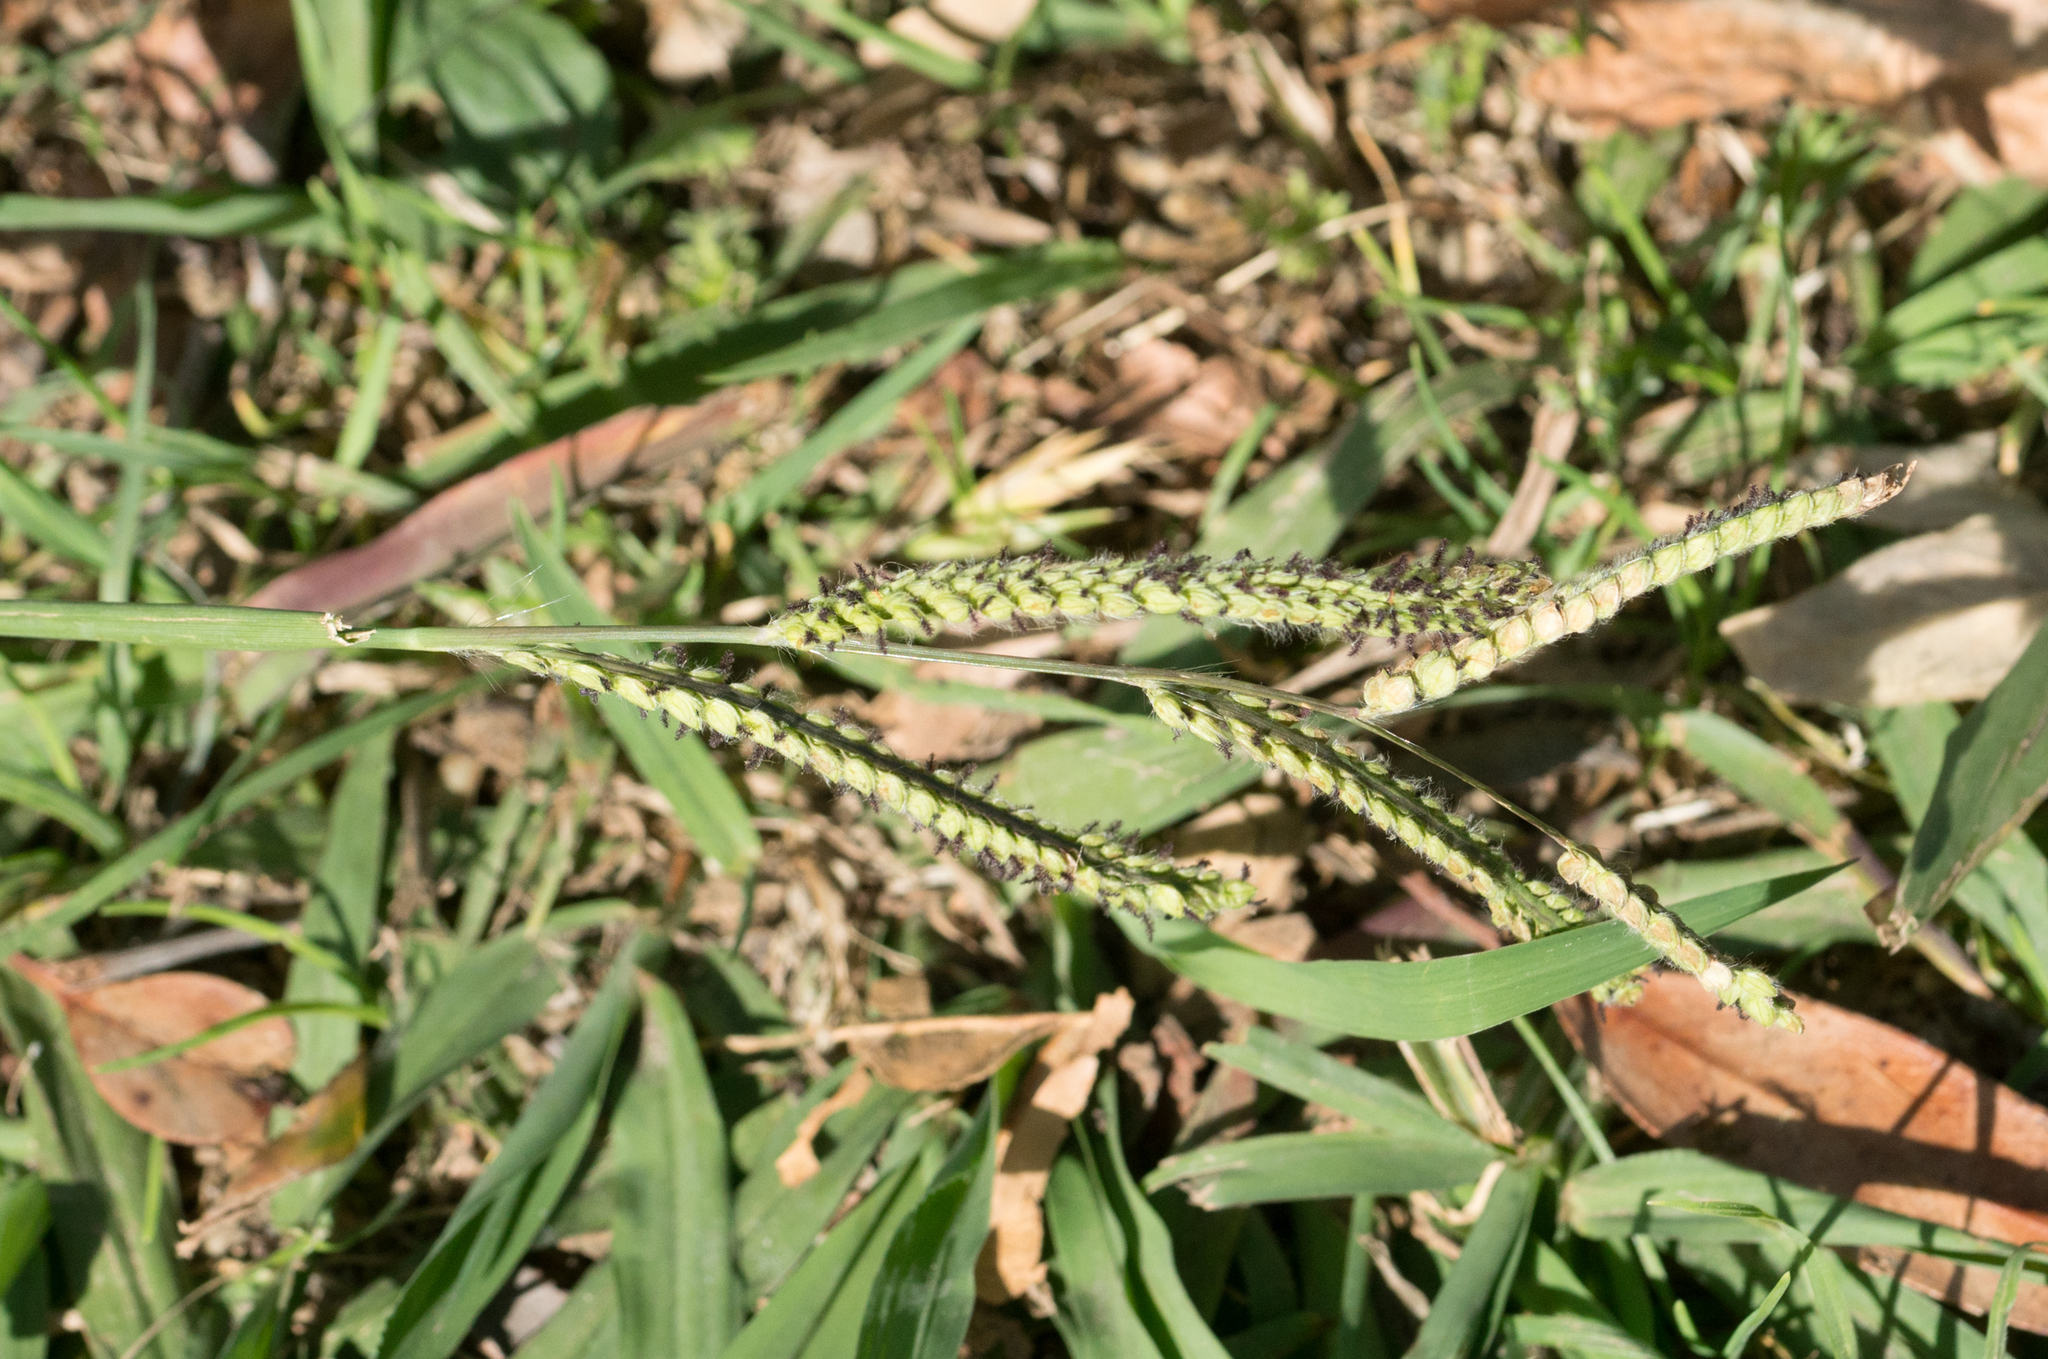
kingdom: Plantae
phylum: Tracheophyta
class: Liliopsida
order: Poales
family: Poaceae
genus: Paspalum
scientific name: Paspalum dilatatum
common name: Dallisgrass
